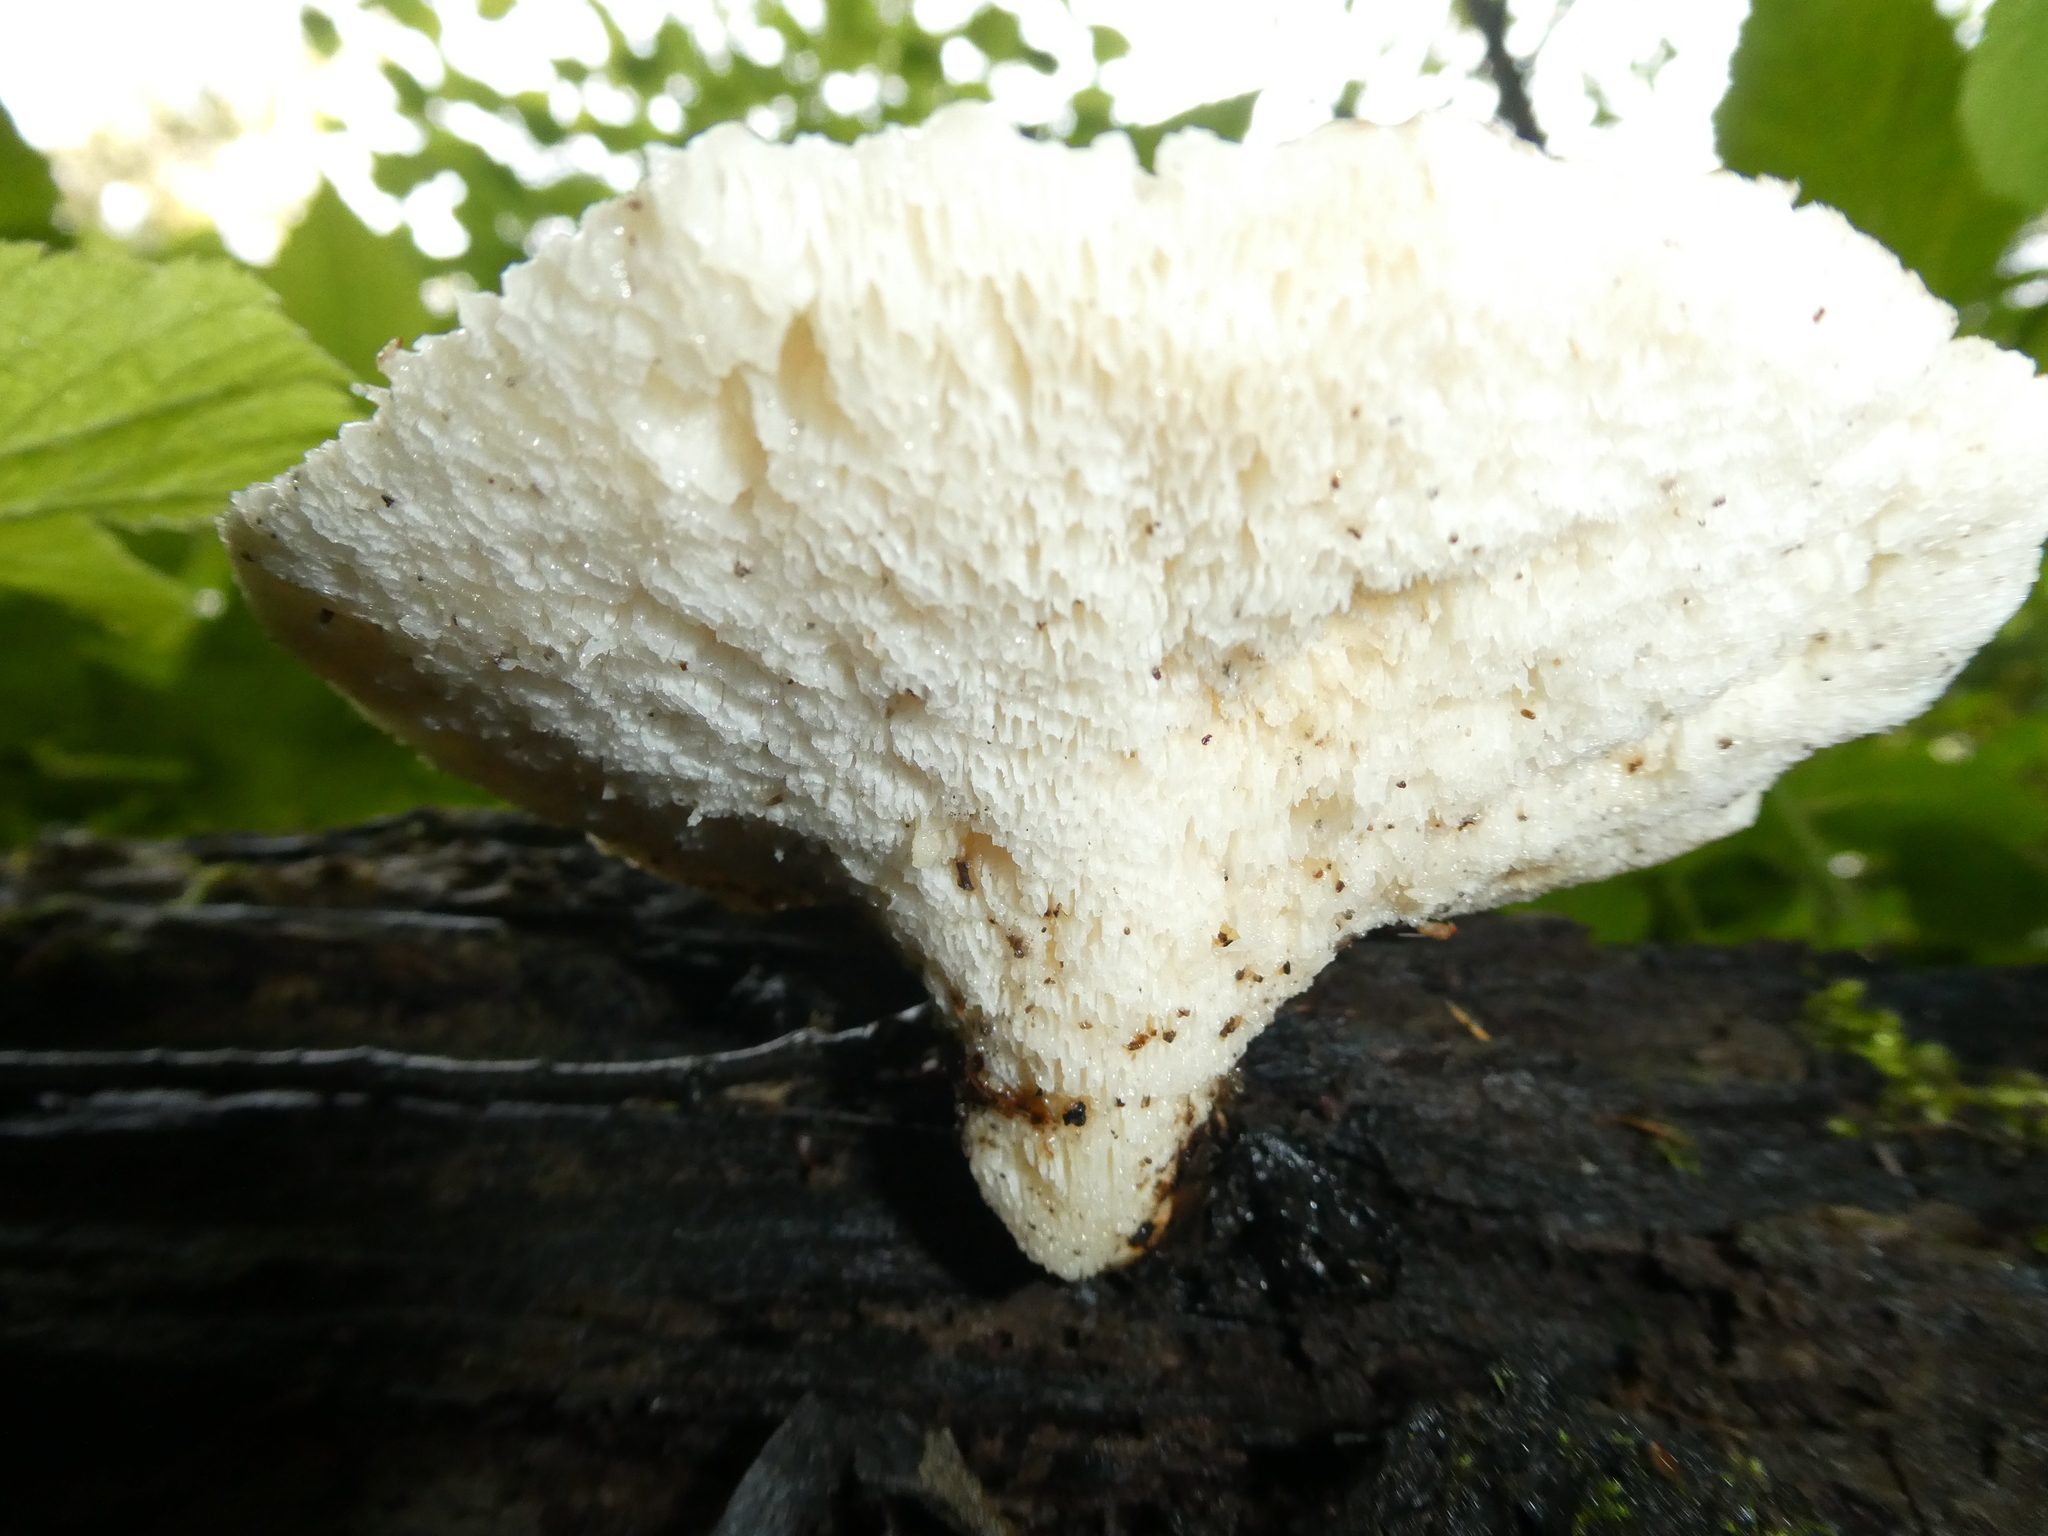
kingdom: Fungi
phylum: Basidiomycota
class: Agaricomycetes
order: Polyporales
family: Polyporaceae
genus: Cerioporus
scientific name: Cerioporus squamosus
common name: Dryad's saddle
